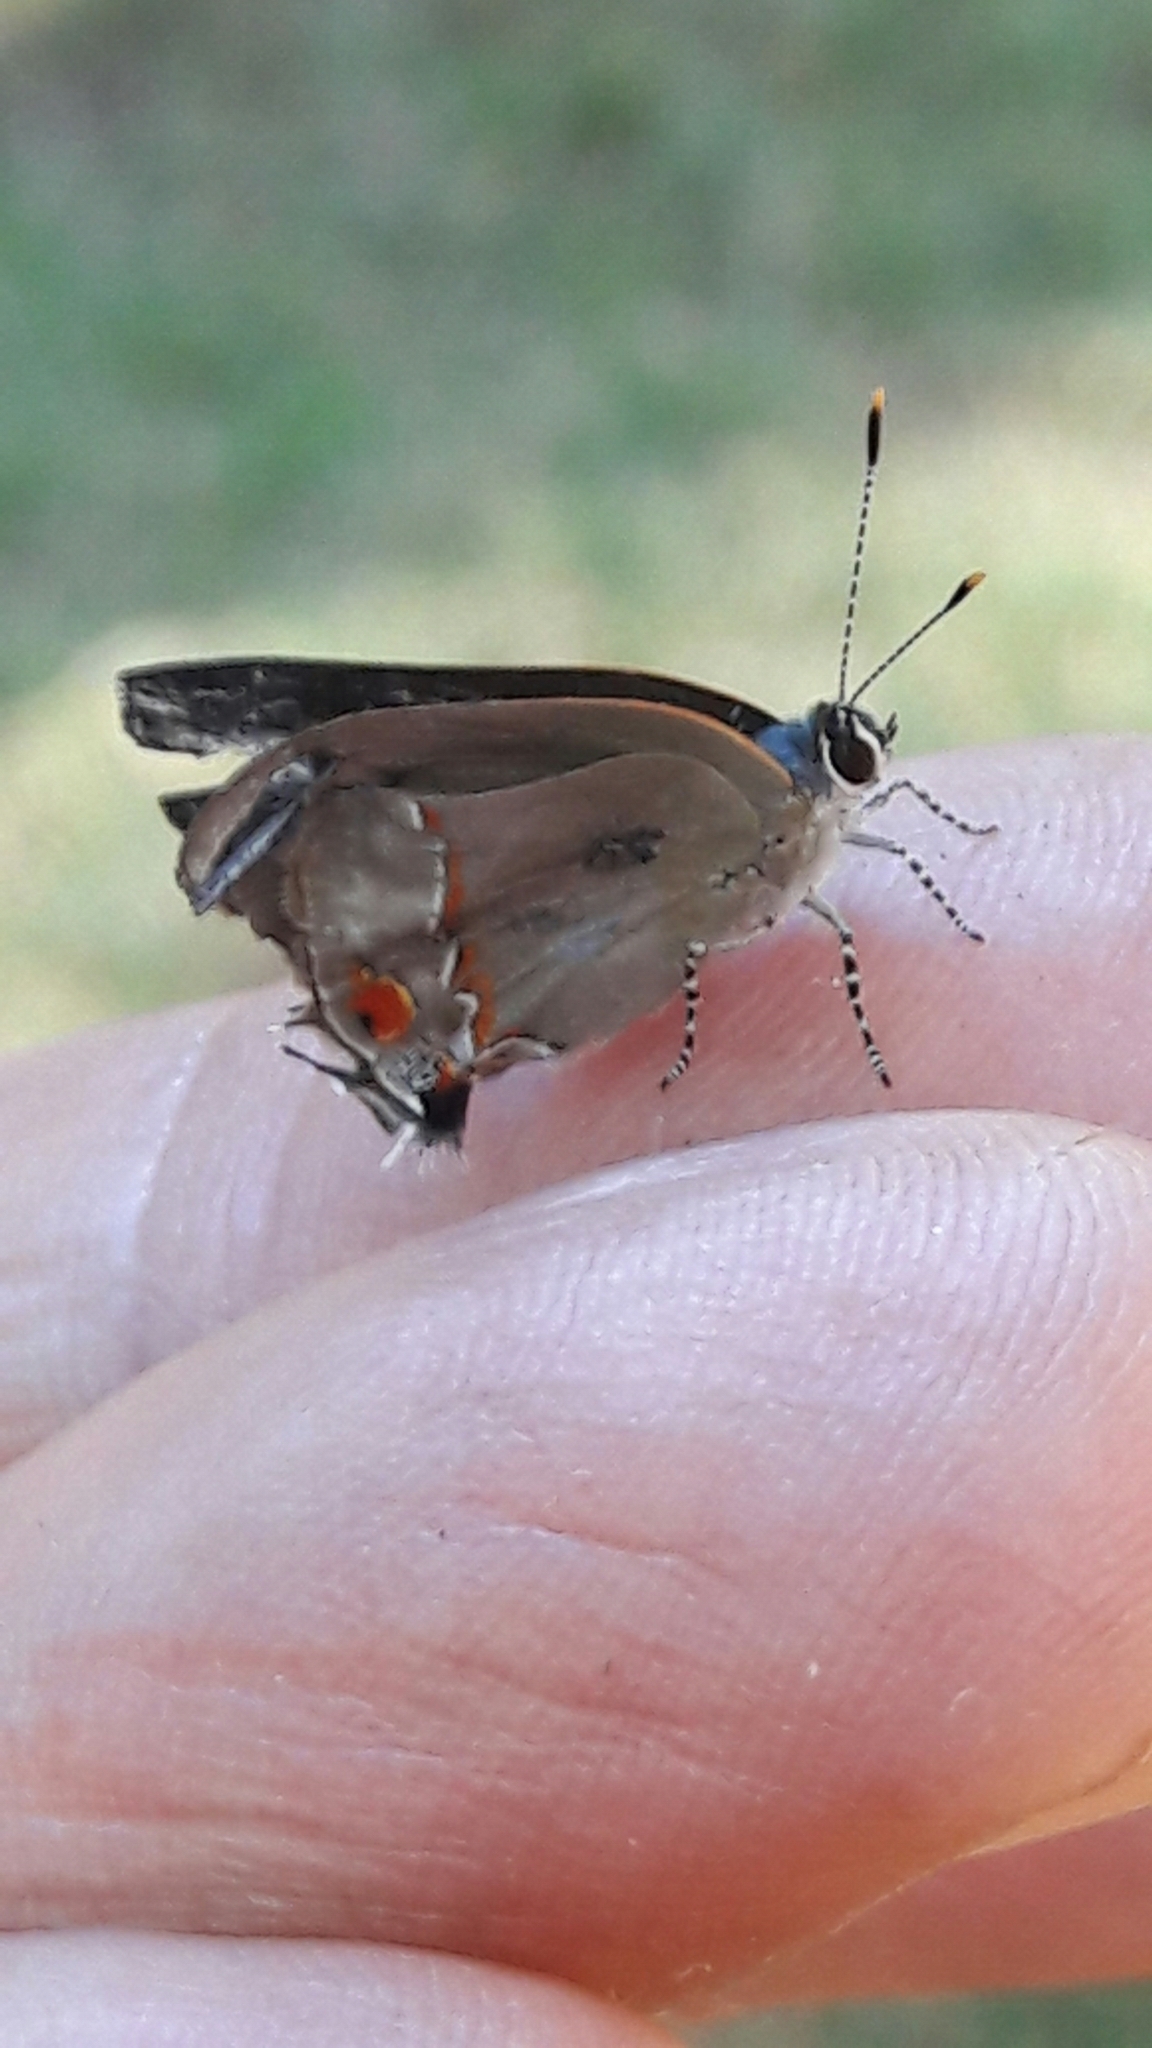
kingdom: Animalia
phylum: Arthropoda
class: Insecta
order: Lepidoptera
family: Lycaenidae
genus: Thecla
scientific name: Thecla syllis
